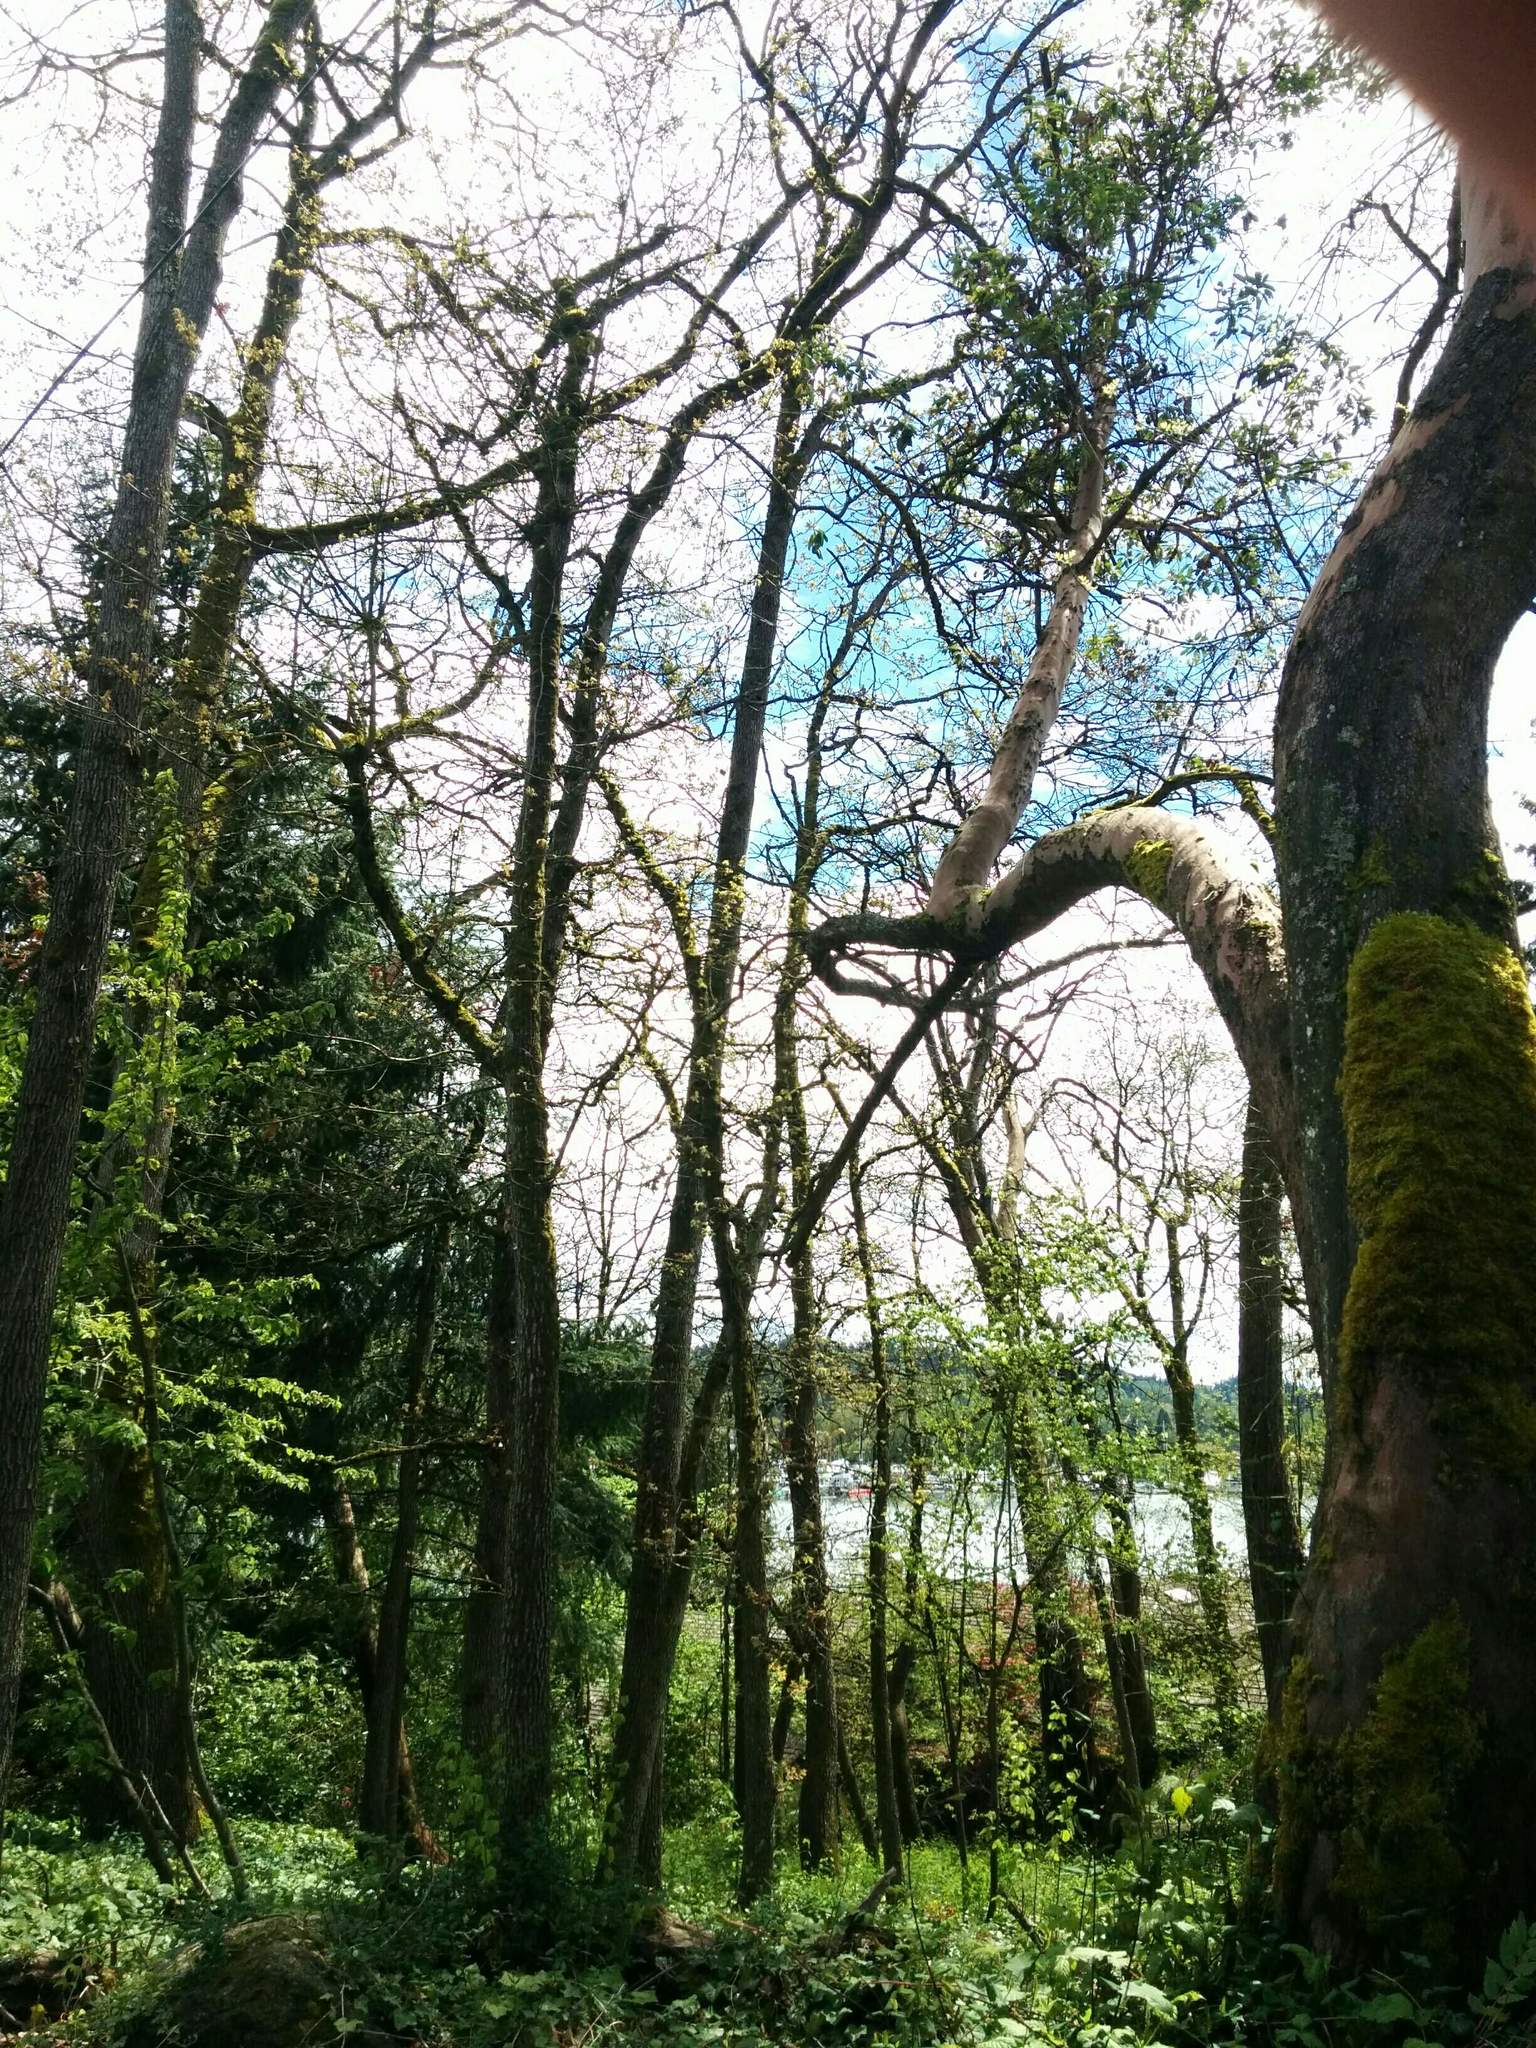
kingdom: Plantae
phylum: Tracheophyta
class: Magnoliopsida
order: Fagales
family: Fagaceae
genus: Quercus
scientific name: Quercus garryana
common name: Garry oak
